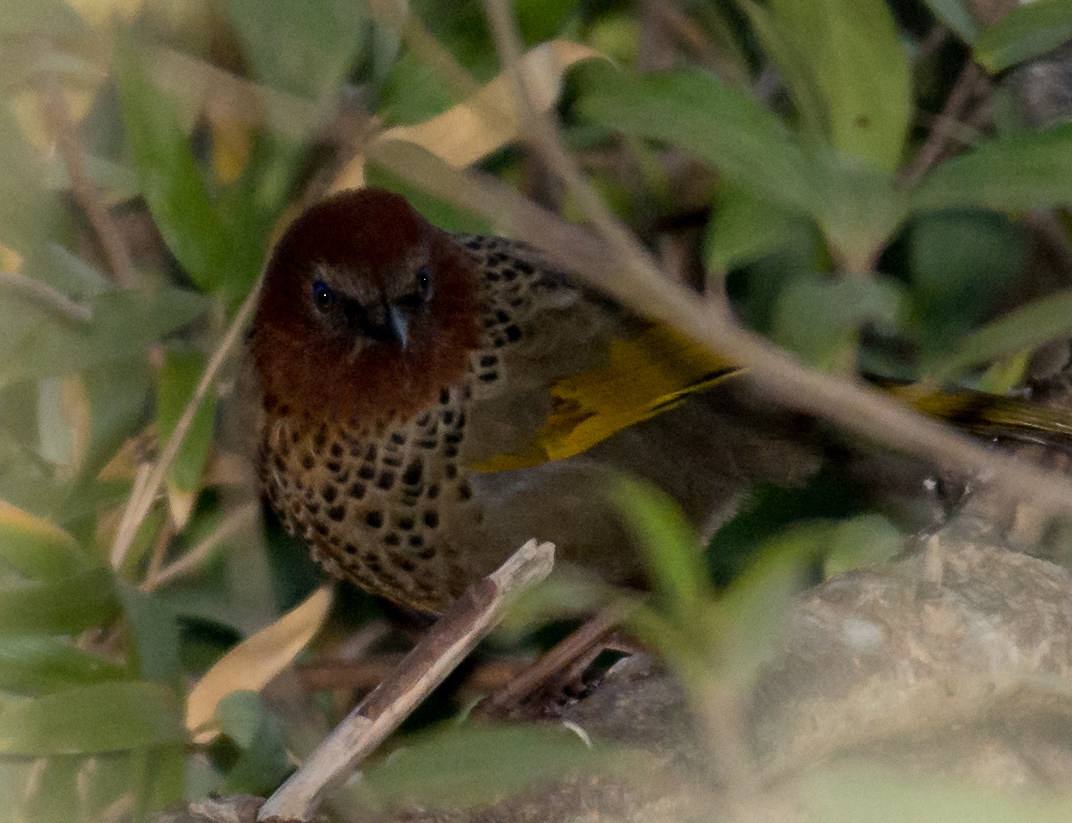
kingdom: Animalia
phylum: Chordata
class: Aves
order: Passeriformes
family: Leiothrichidae
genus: Trochalopteron
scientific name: Trochalopteron chrysopterum
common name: Assam laughingthrush
